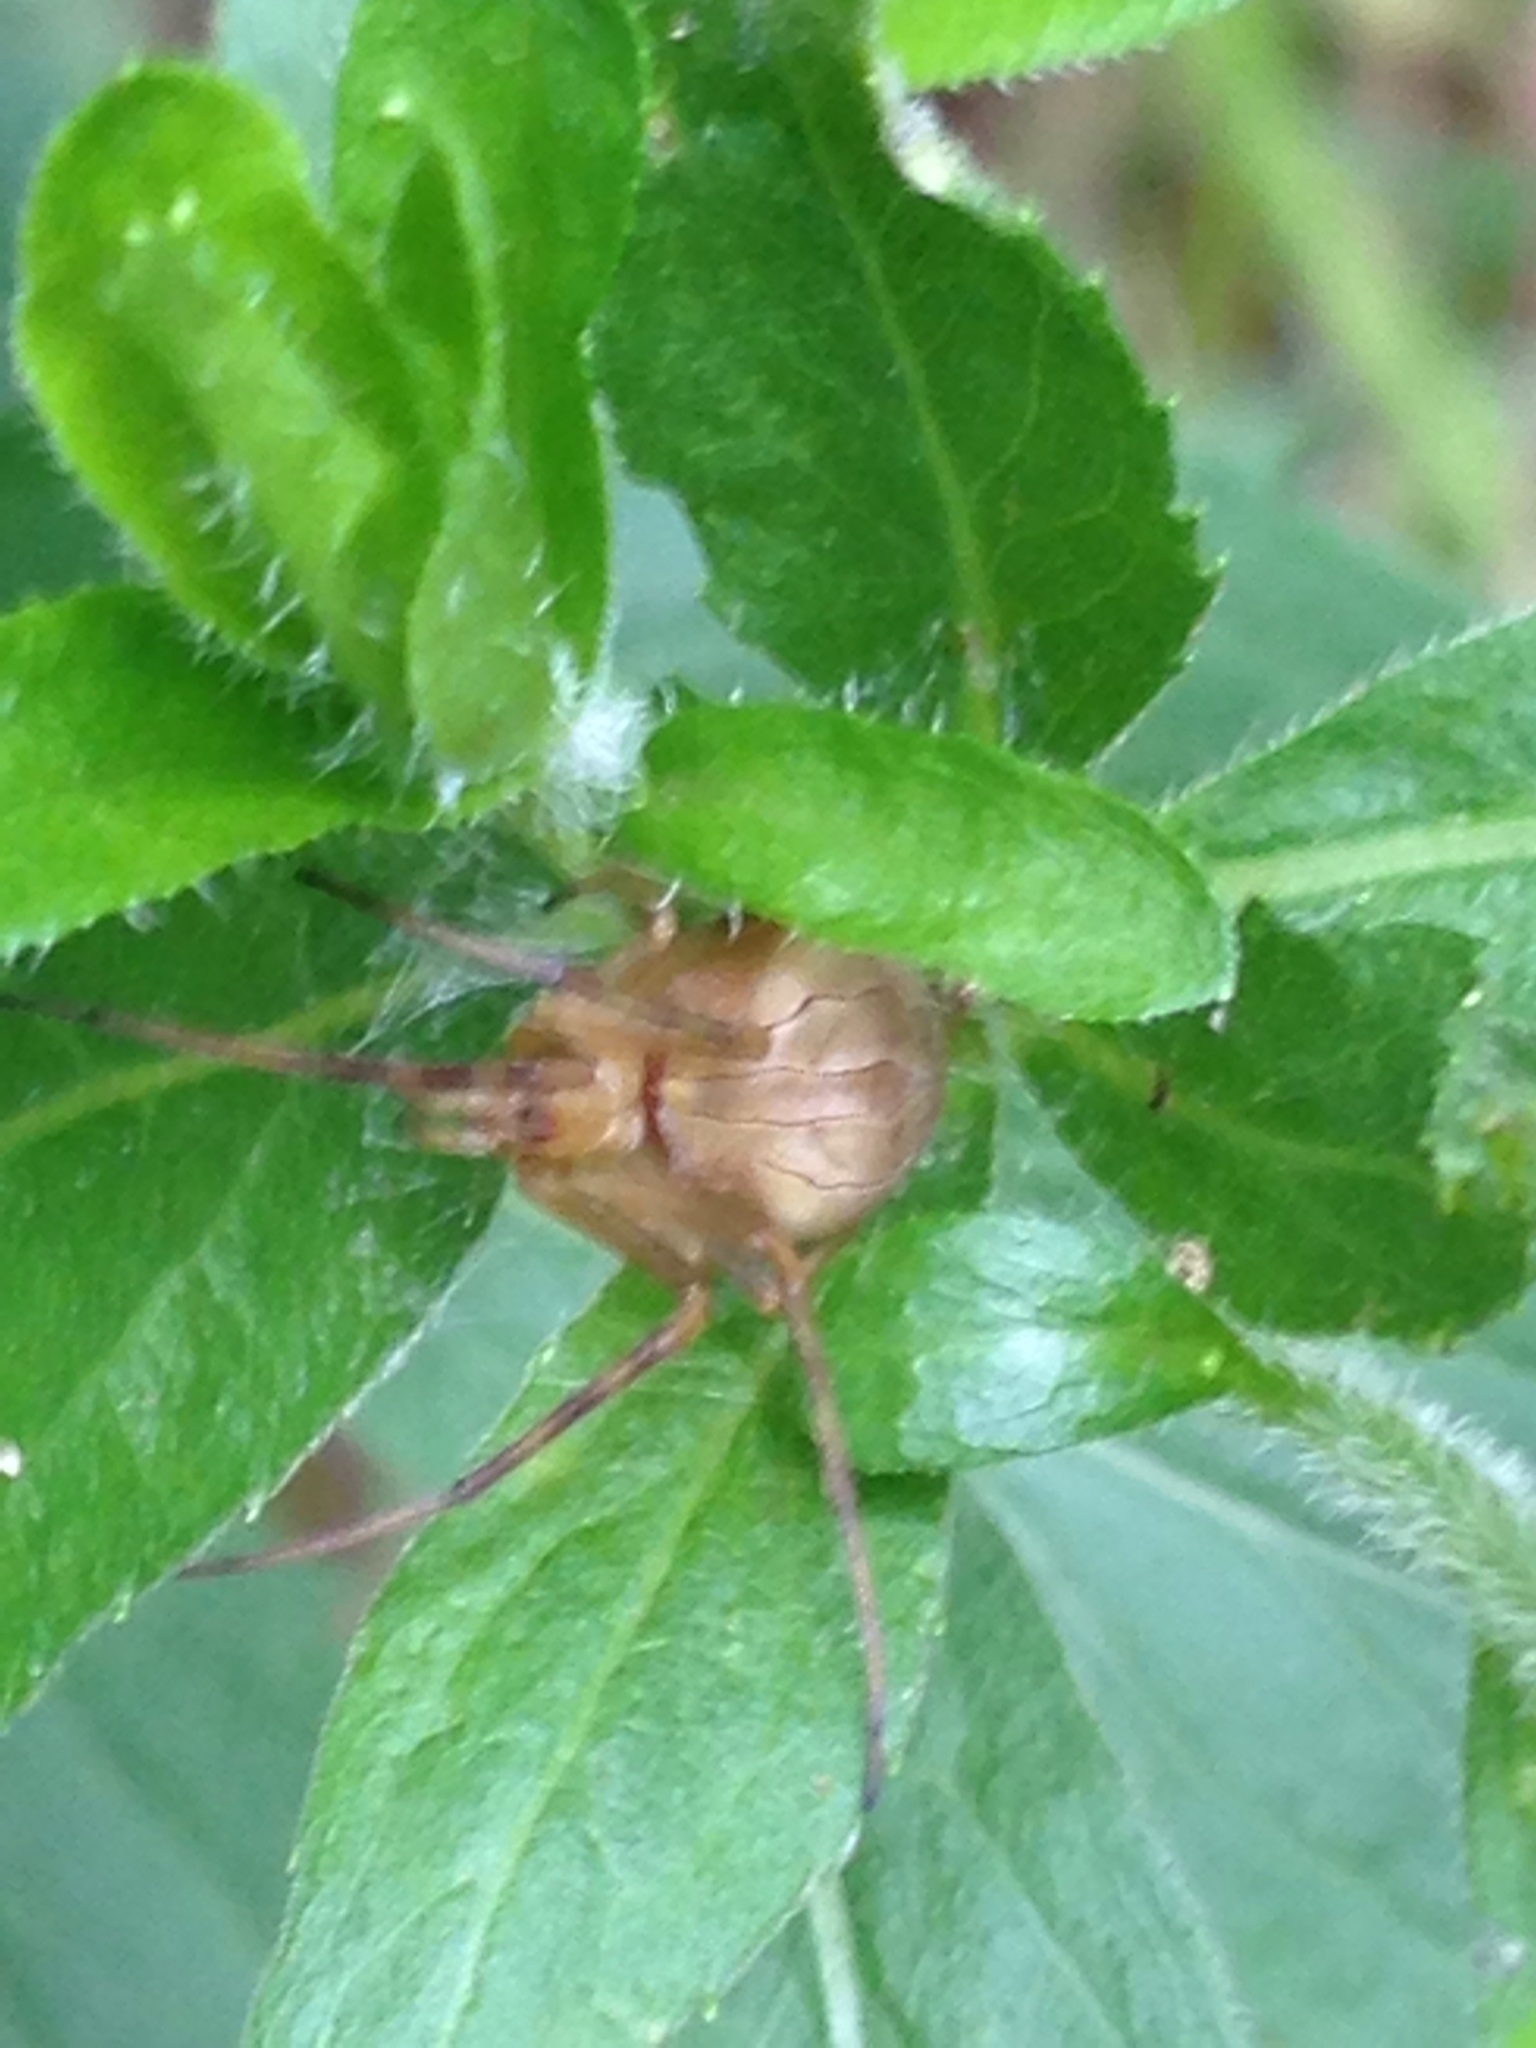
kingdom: Animalia
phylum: Arthropoda
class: Arachnida
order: Araneae
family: Araneidae
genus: Acacesia
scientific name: Acacesia hamata
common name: Orb weavers
